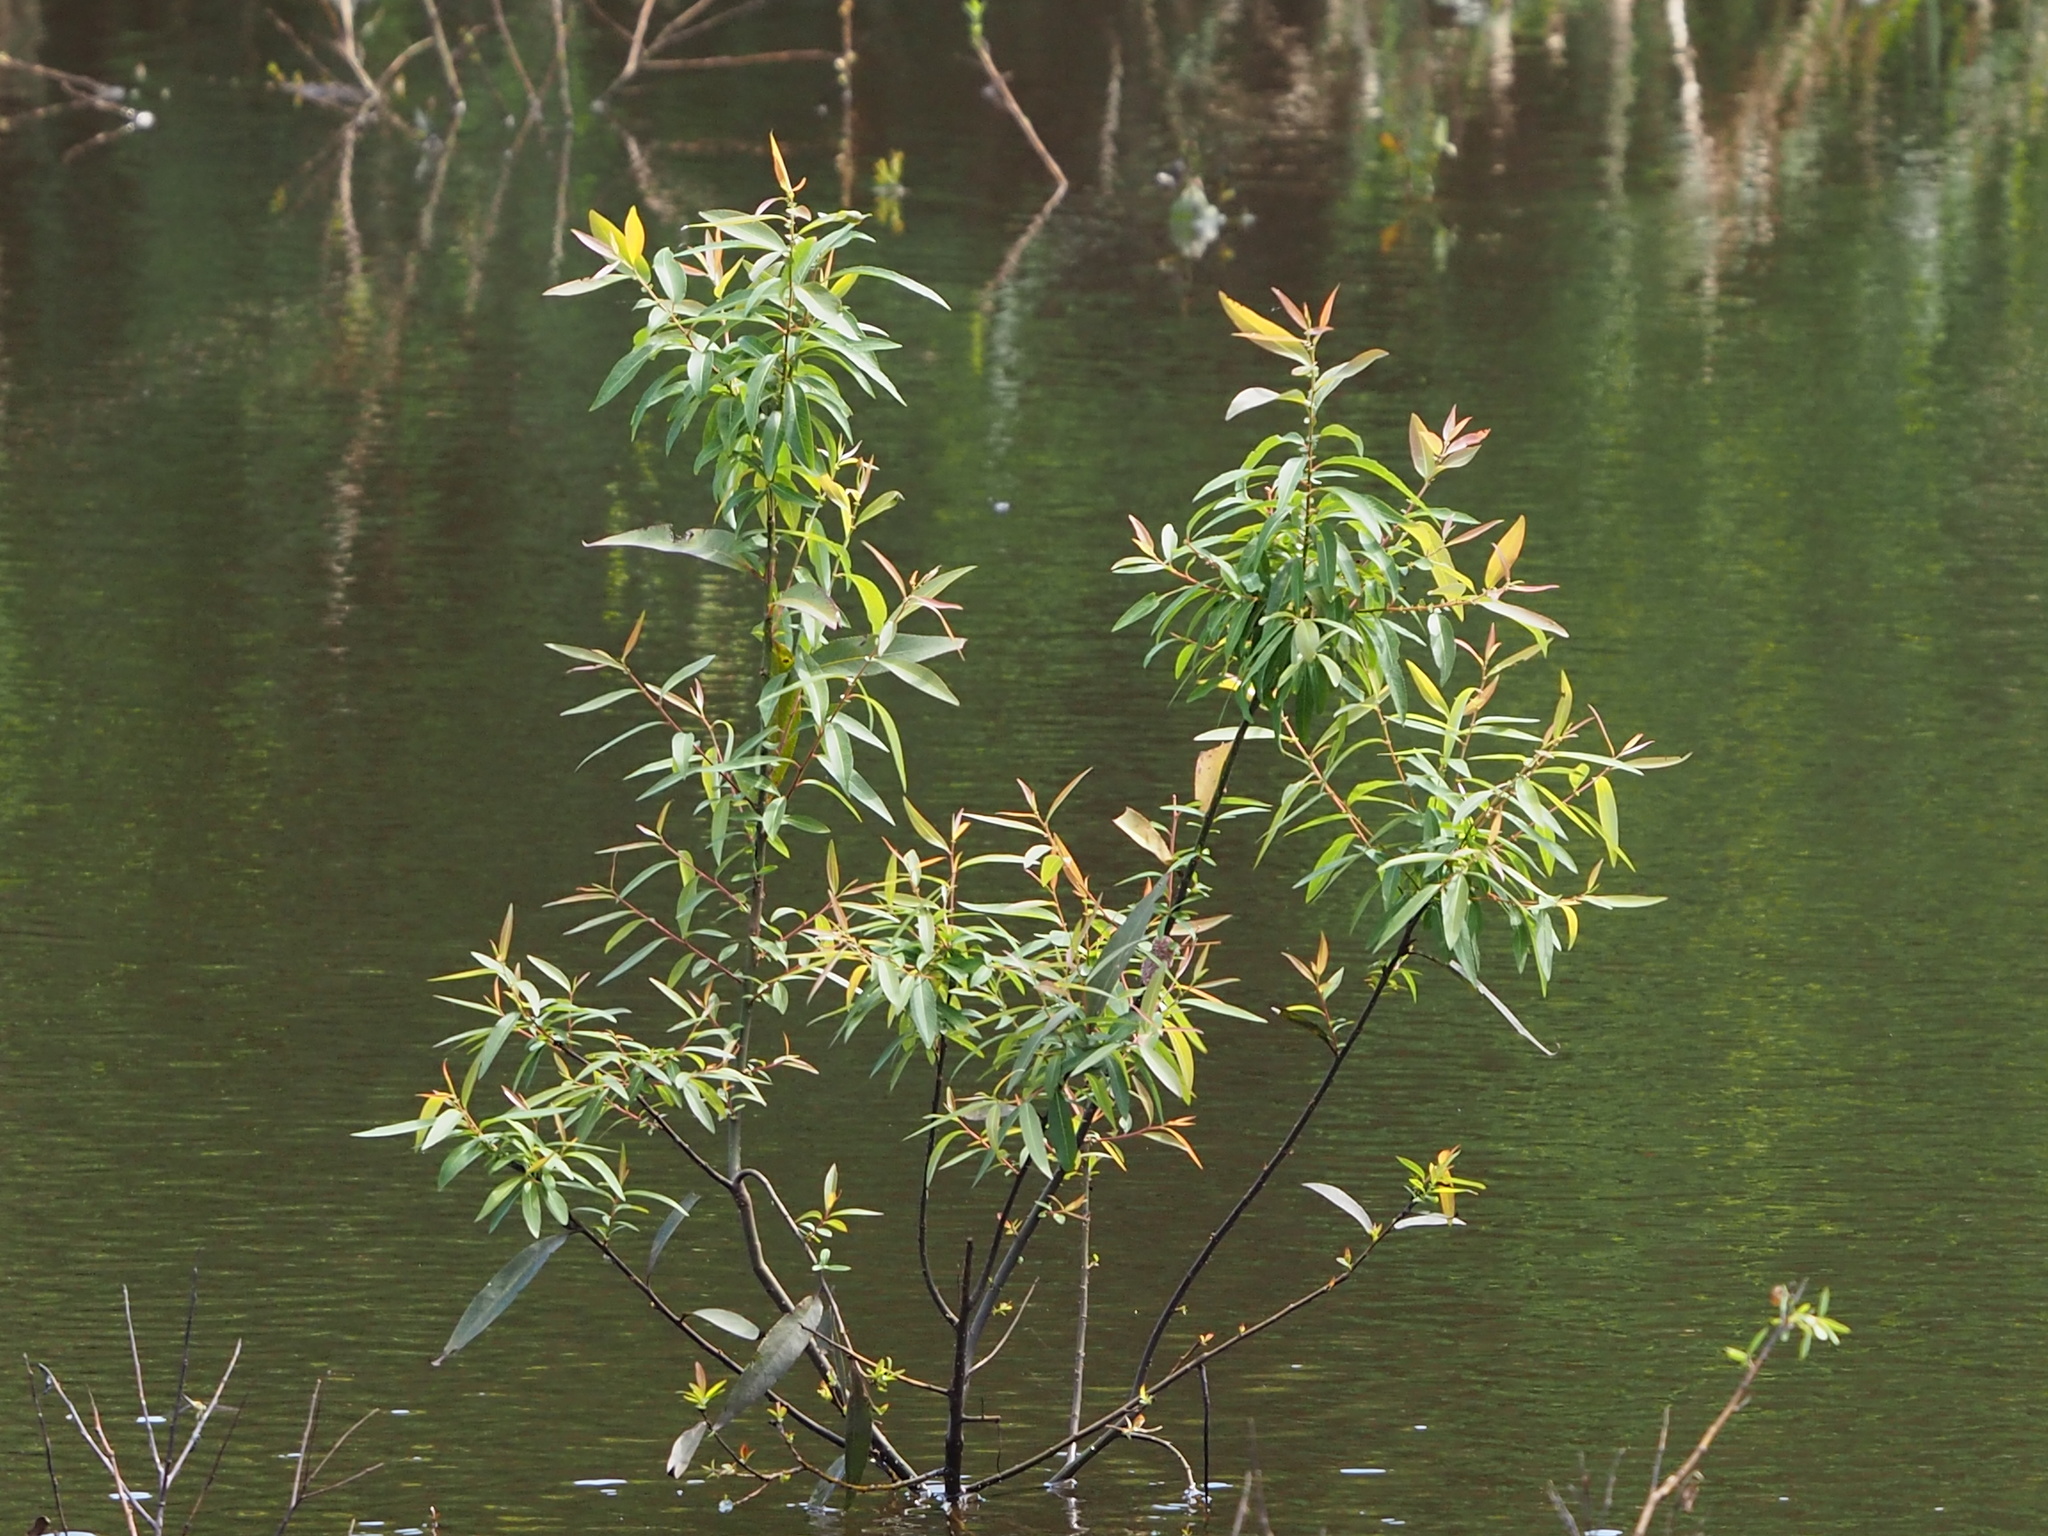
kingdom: Plantae
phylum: Tracheophyta
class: Magnoliopsida
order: Malpighiales
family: Salicaceae
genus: Salix
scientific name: Salix mesnyi
